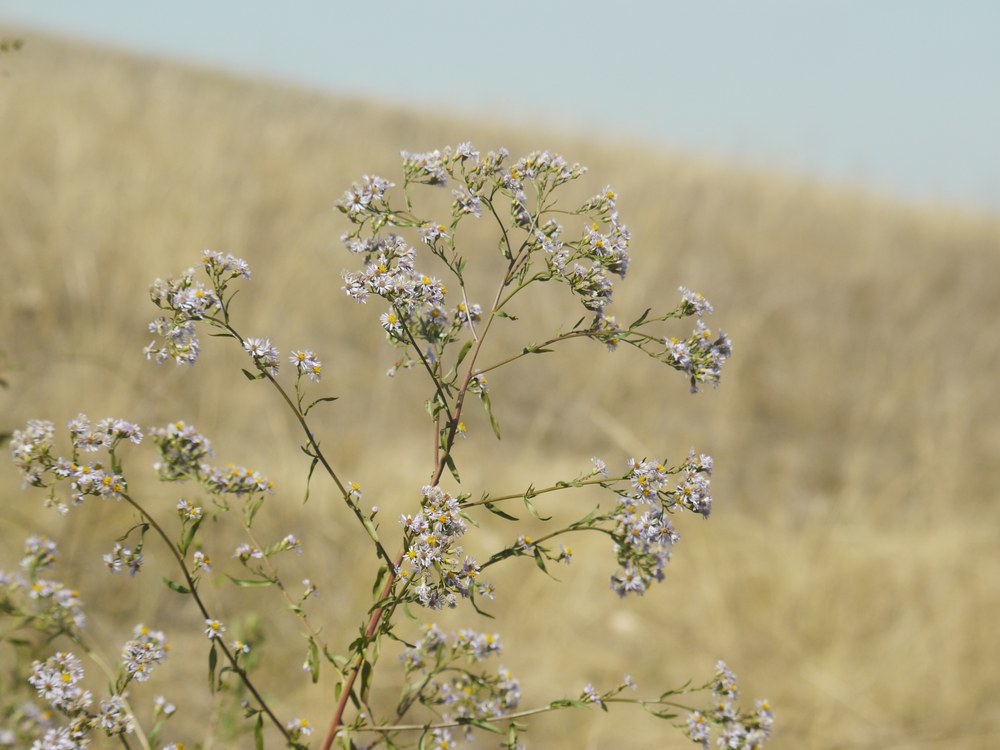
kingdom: Plantae
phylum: Tracheophyta
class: Magnoliopsida
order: Asterales
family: Asteraceae
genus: Tripolium
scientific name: Tripolium pannonicum
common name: Sea aster
